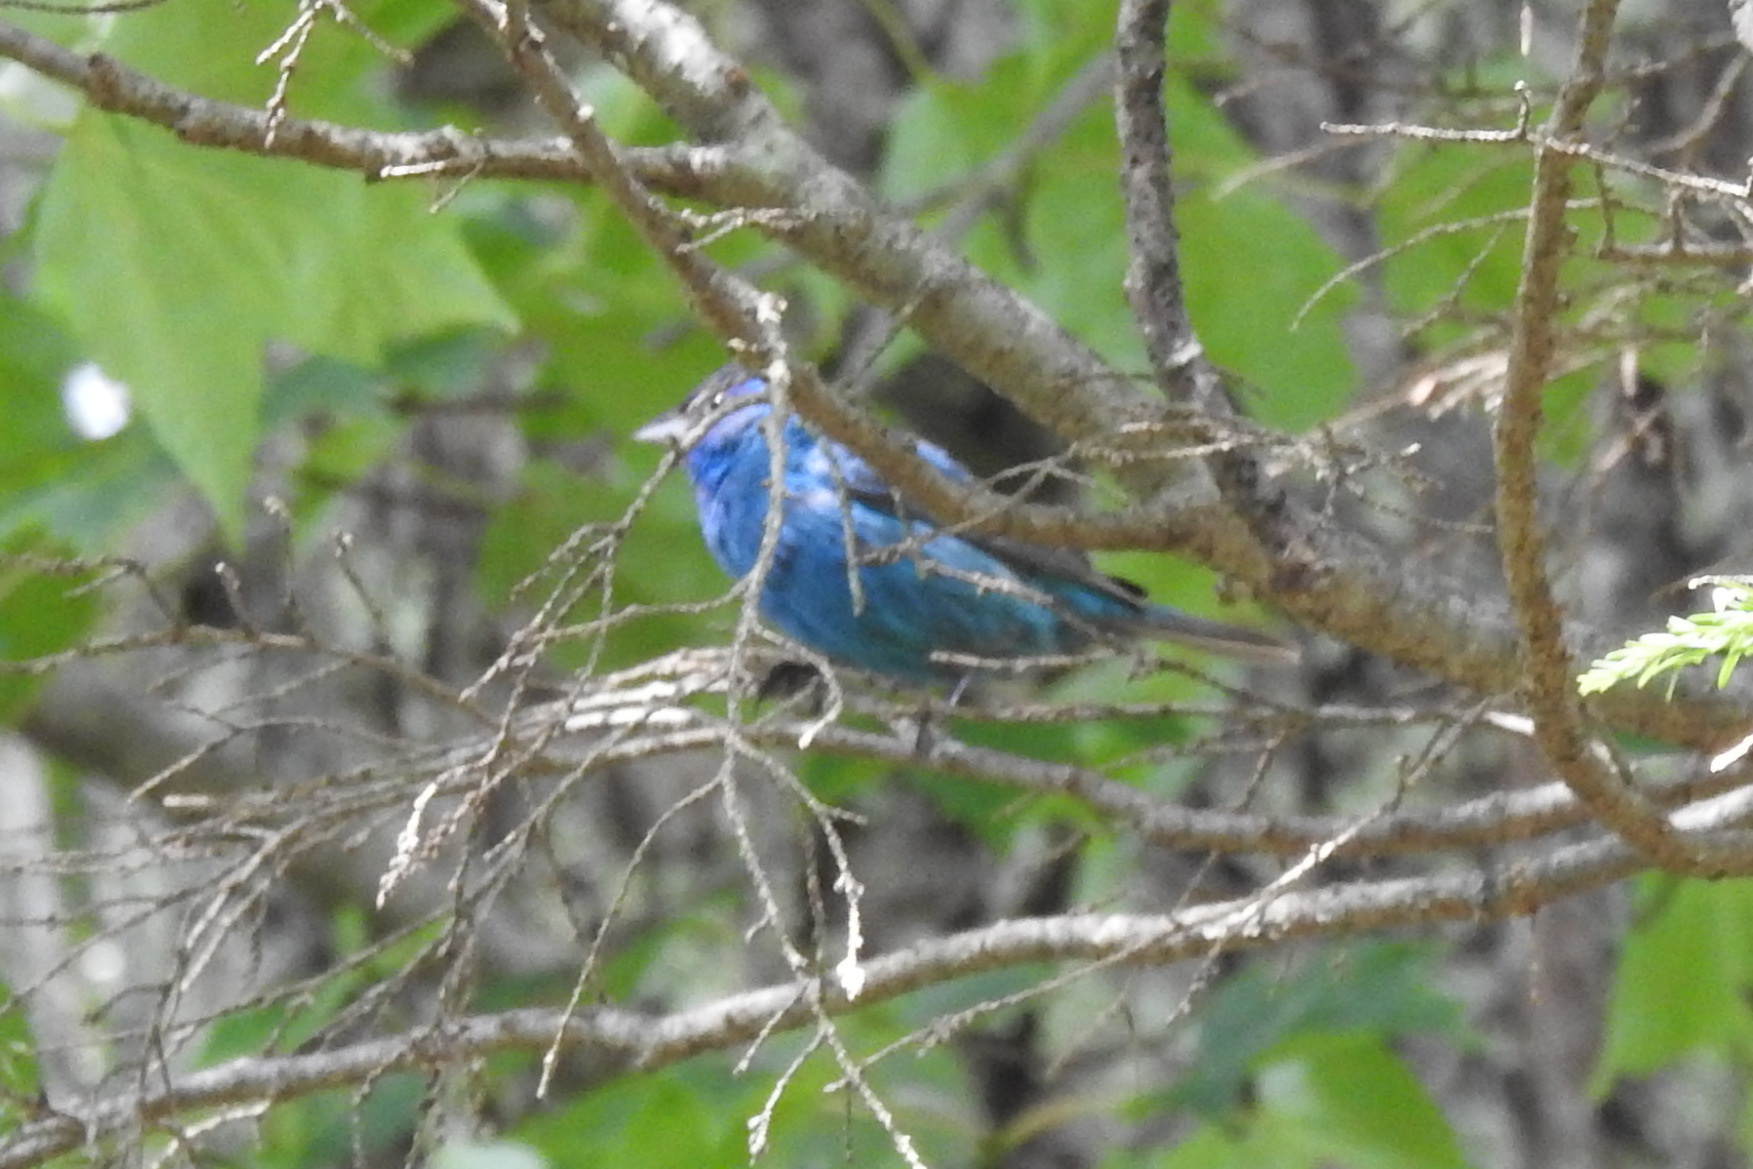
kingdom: Animalia
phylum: Chordata
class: Aves
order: Passeriformes
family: Cardinalidae
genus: Passerina
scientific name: Passerina cyanea
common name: Indigo bunting
